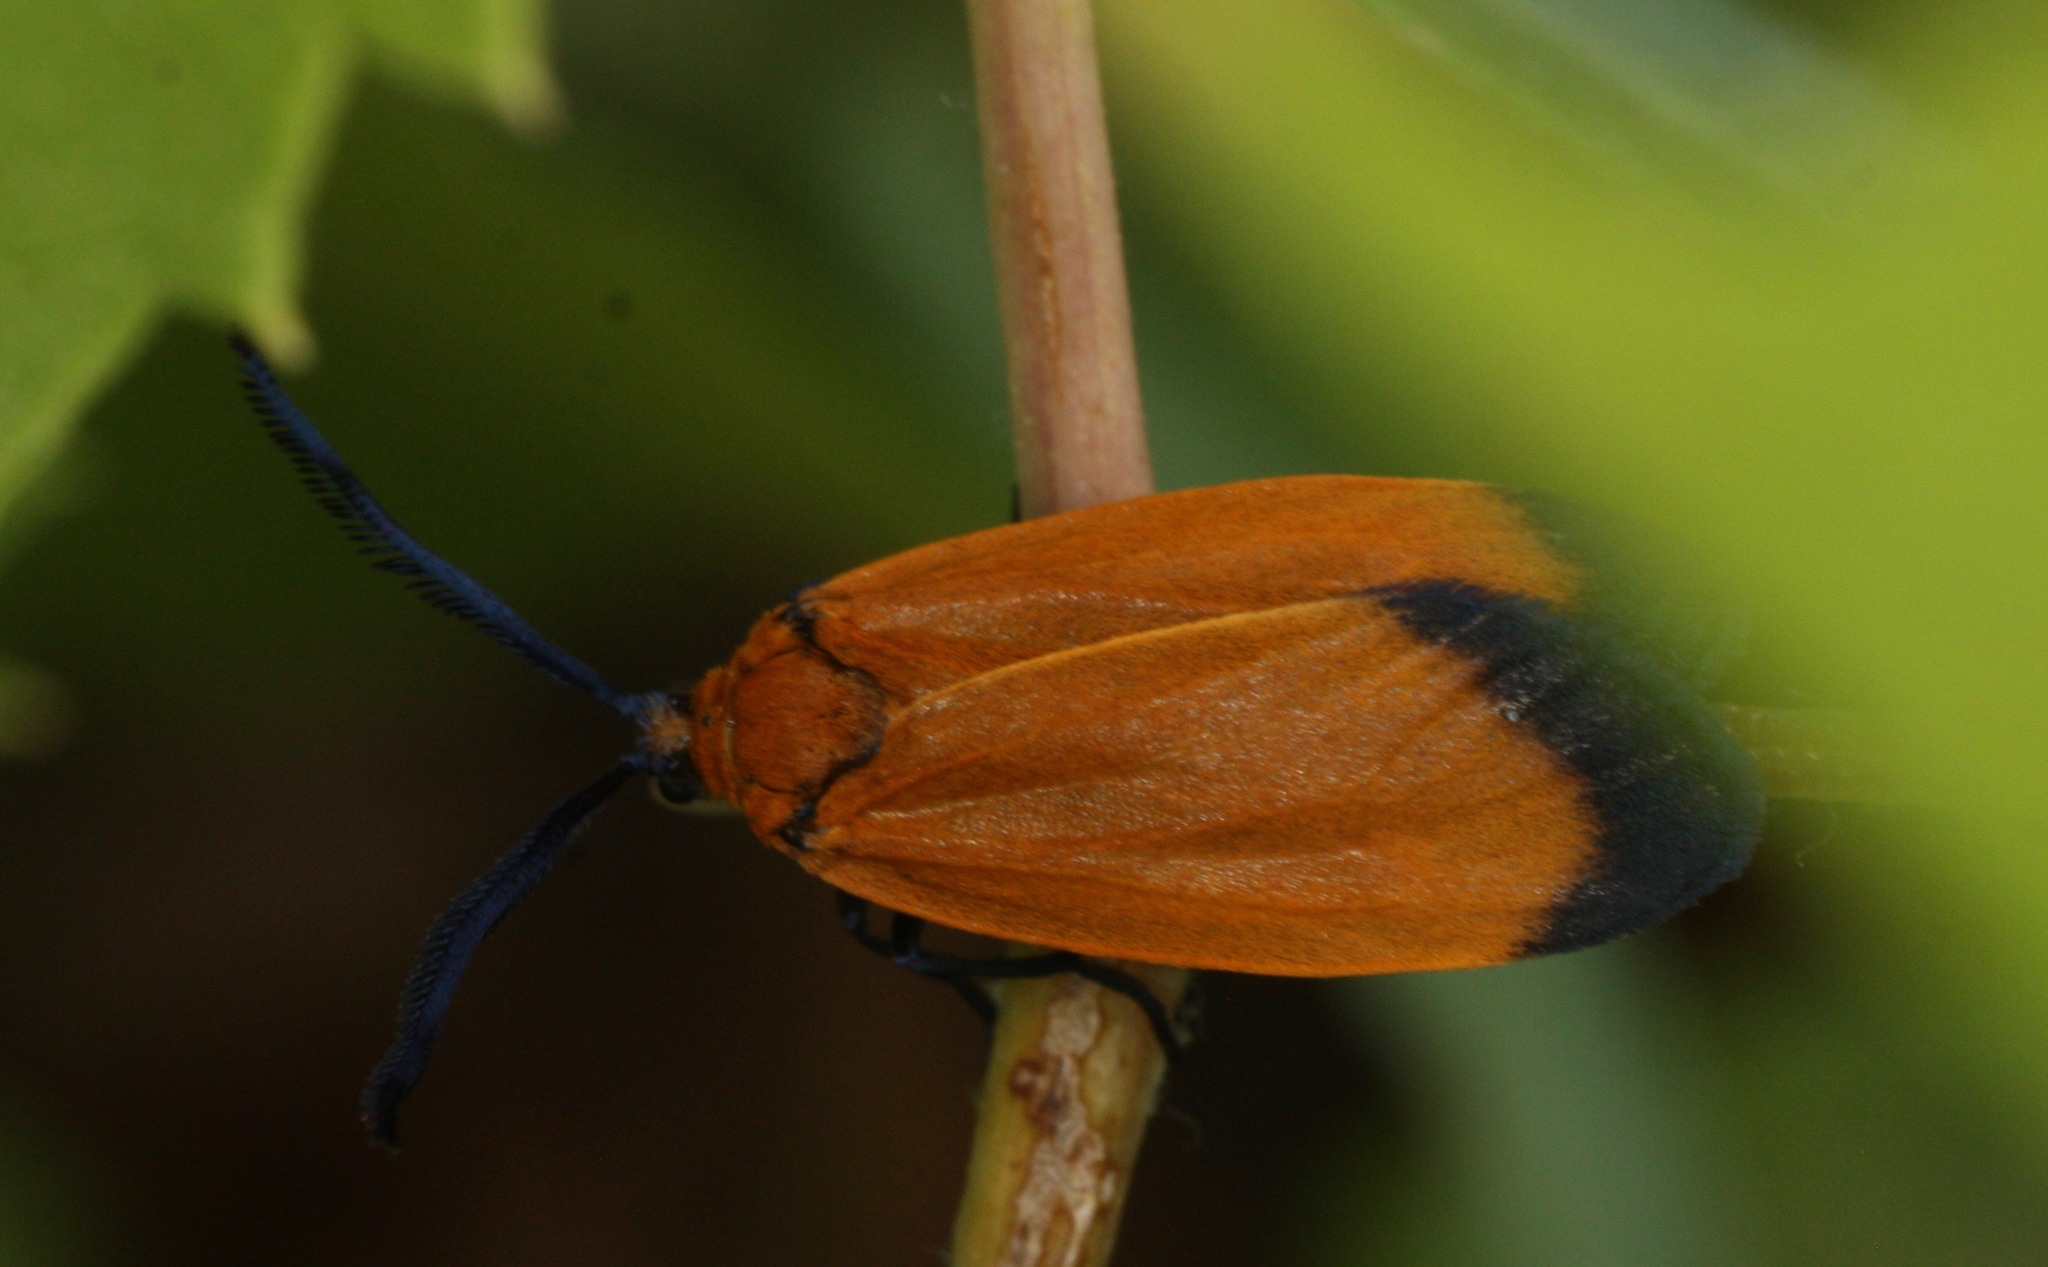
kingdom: Animalia
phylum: Arthropoda
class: Insecta
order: Lepidoptera
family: Zygaenidae
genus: Neoalbertia
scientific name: Neoalbertia constans
